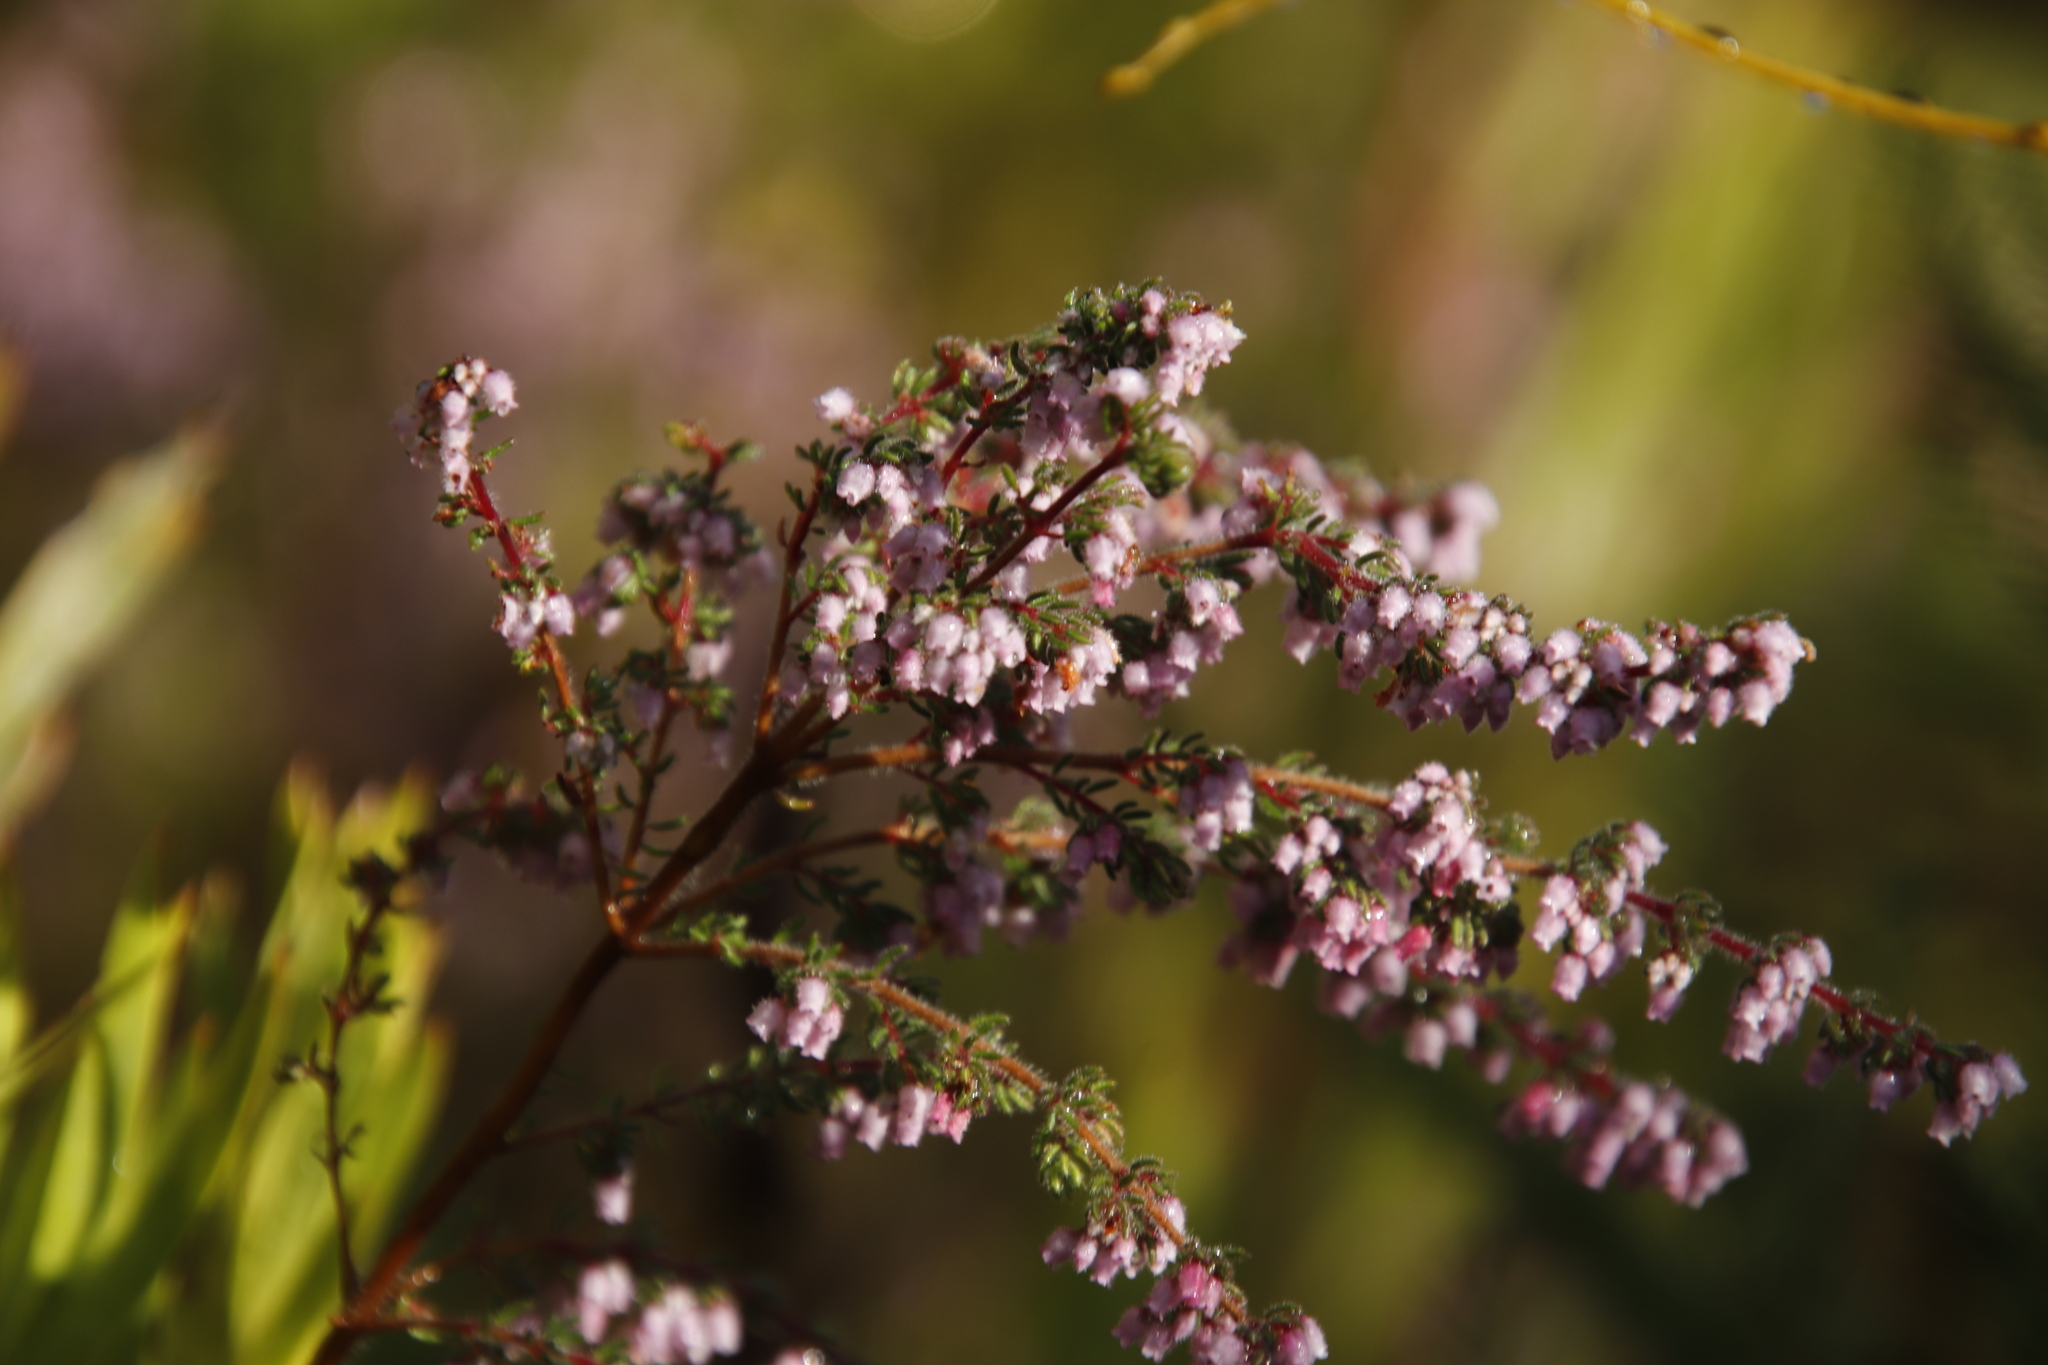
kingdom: Plantae
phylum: Tracheophyta
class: Magnoliopsida
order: Ericales
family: Ericaceae
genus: Erica
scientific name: Erica parviflora
